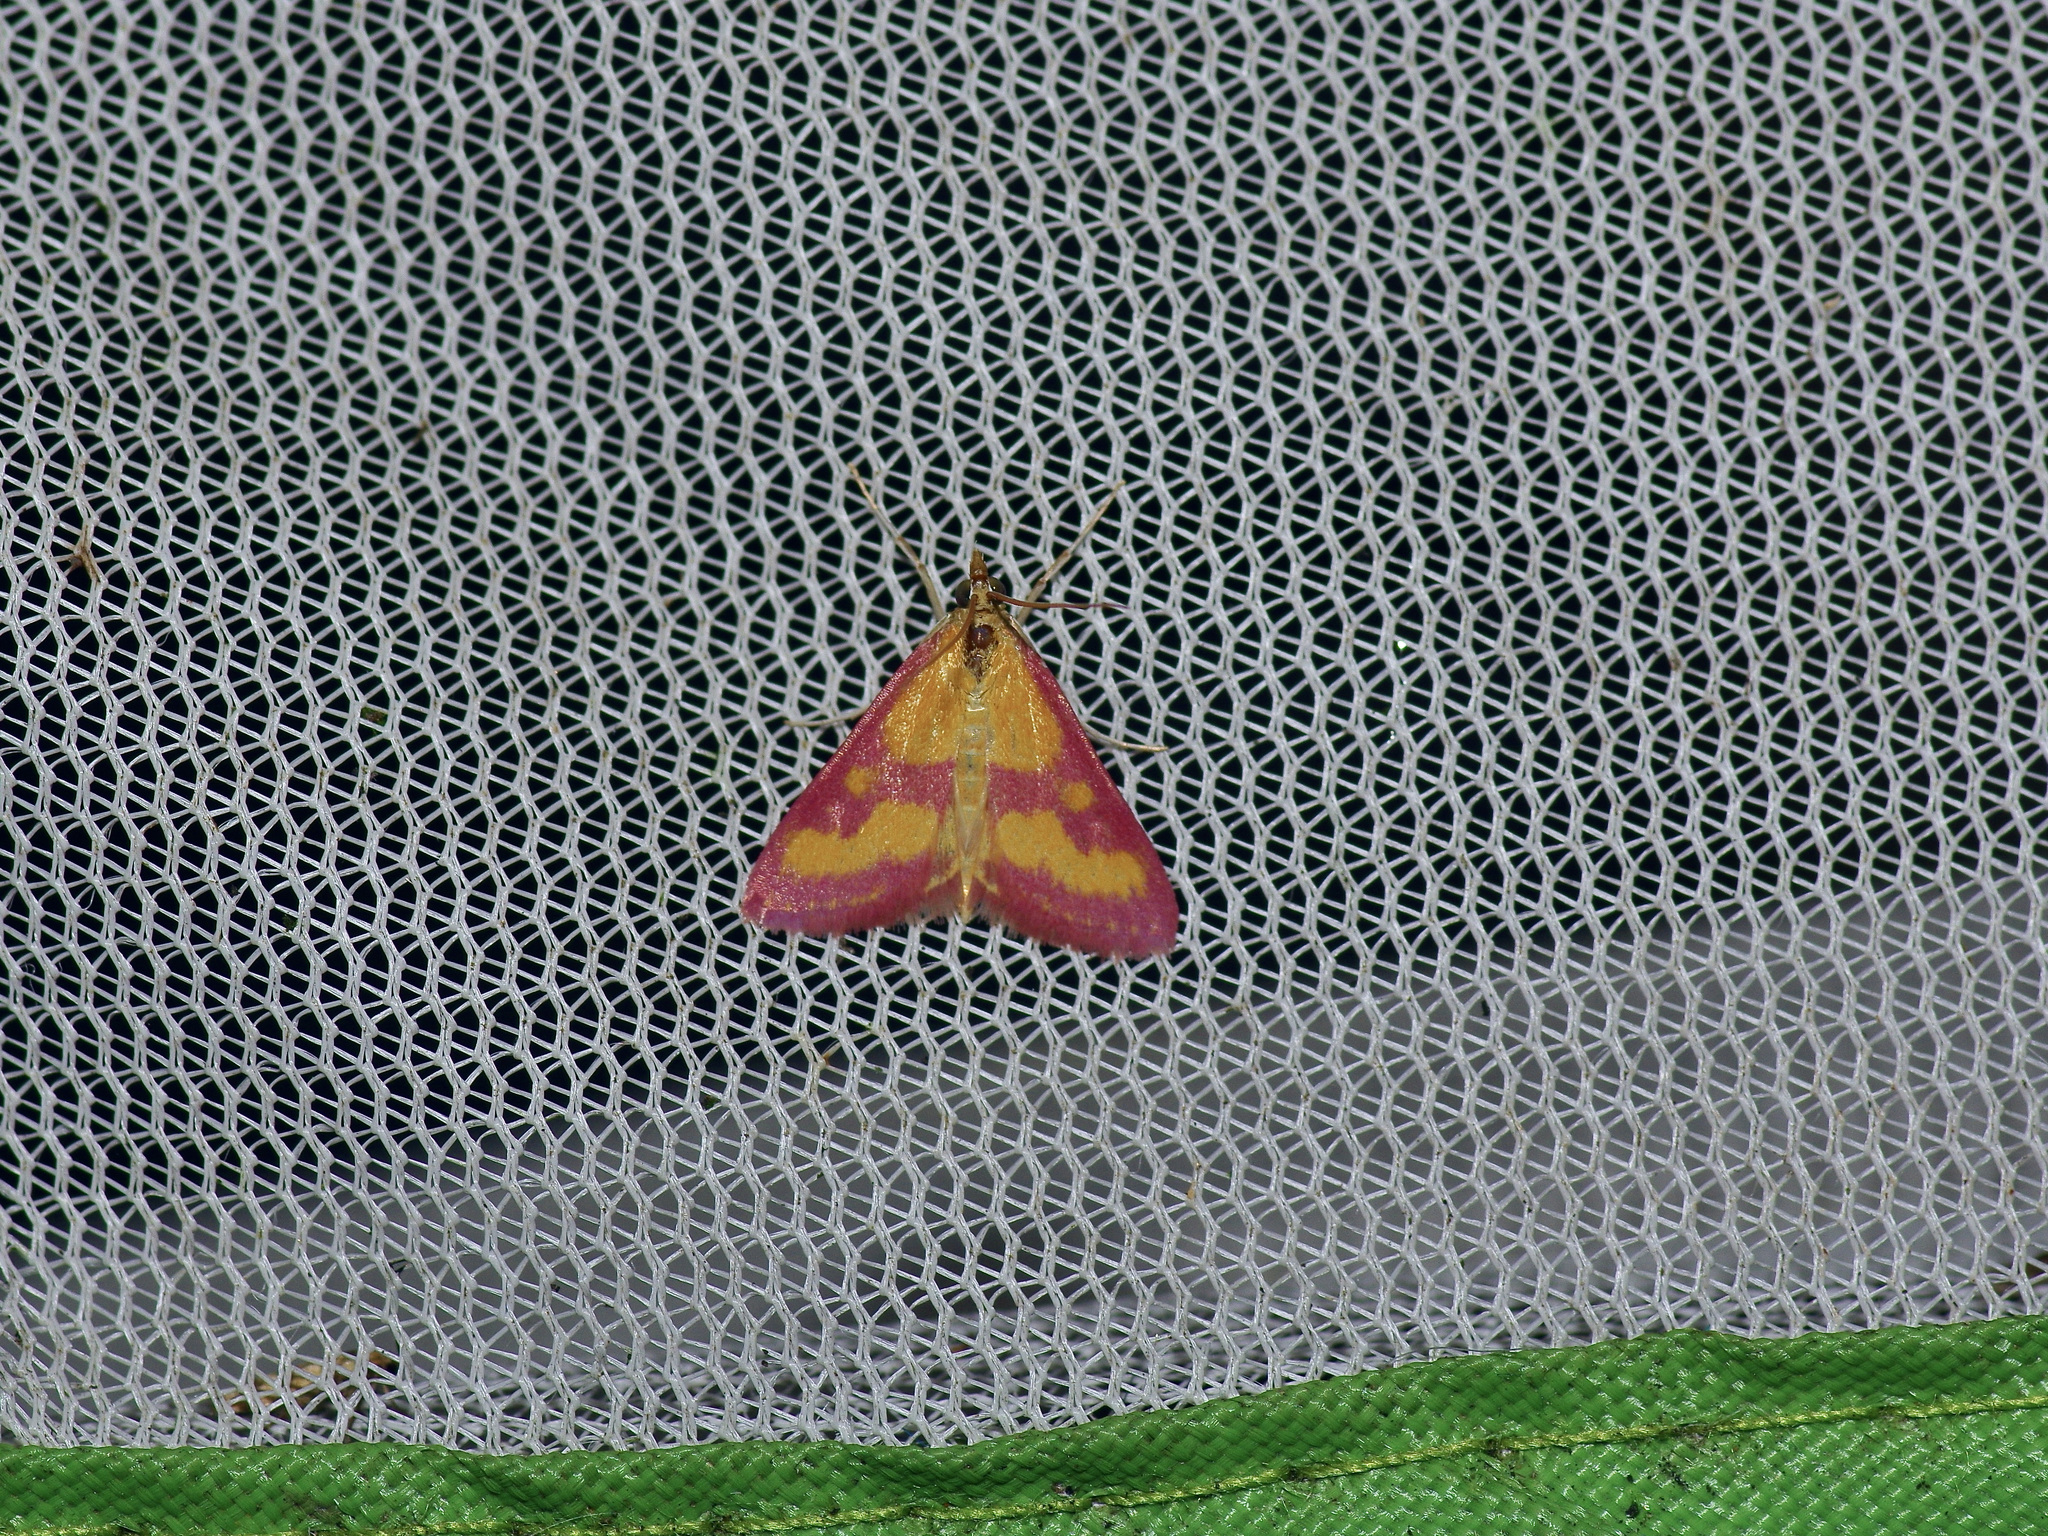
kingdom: Animalia
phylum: Arthropoda
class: Insecta
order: Lepidoptera
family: Crambidae
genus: Pyrausta
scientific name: Pyrausta laticlavia
